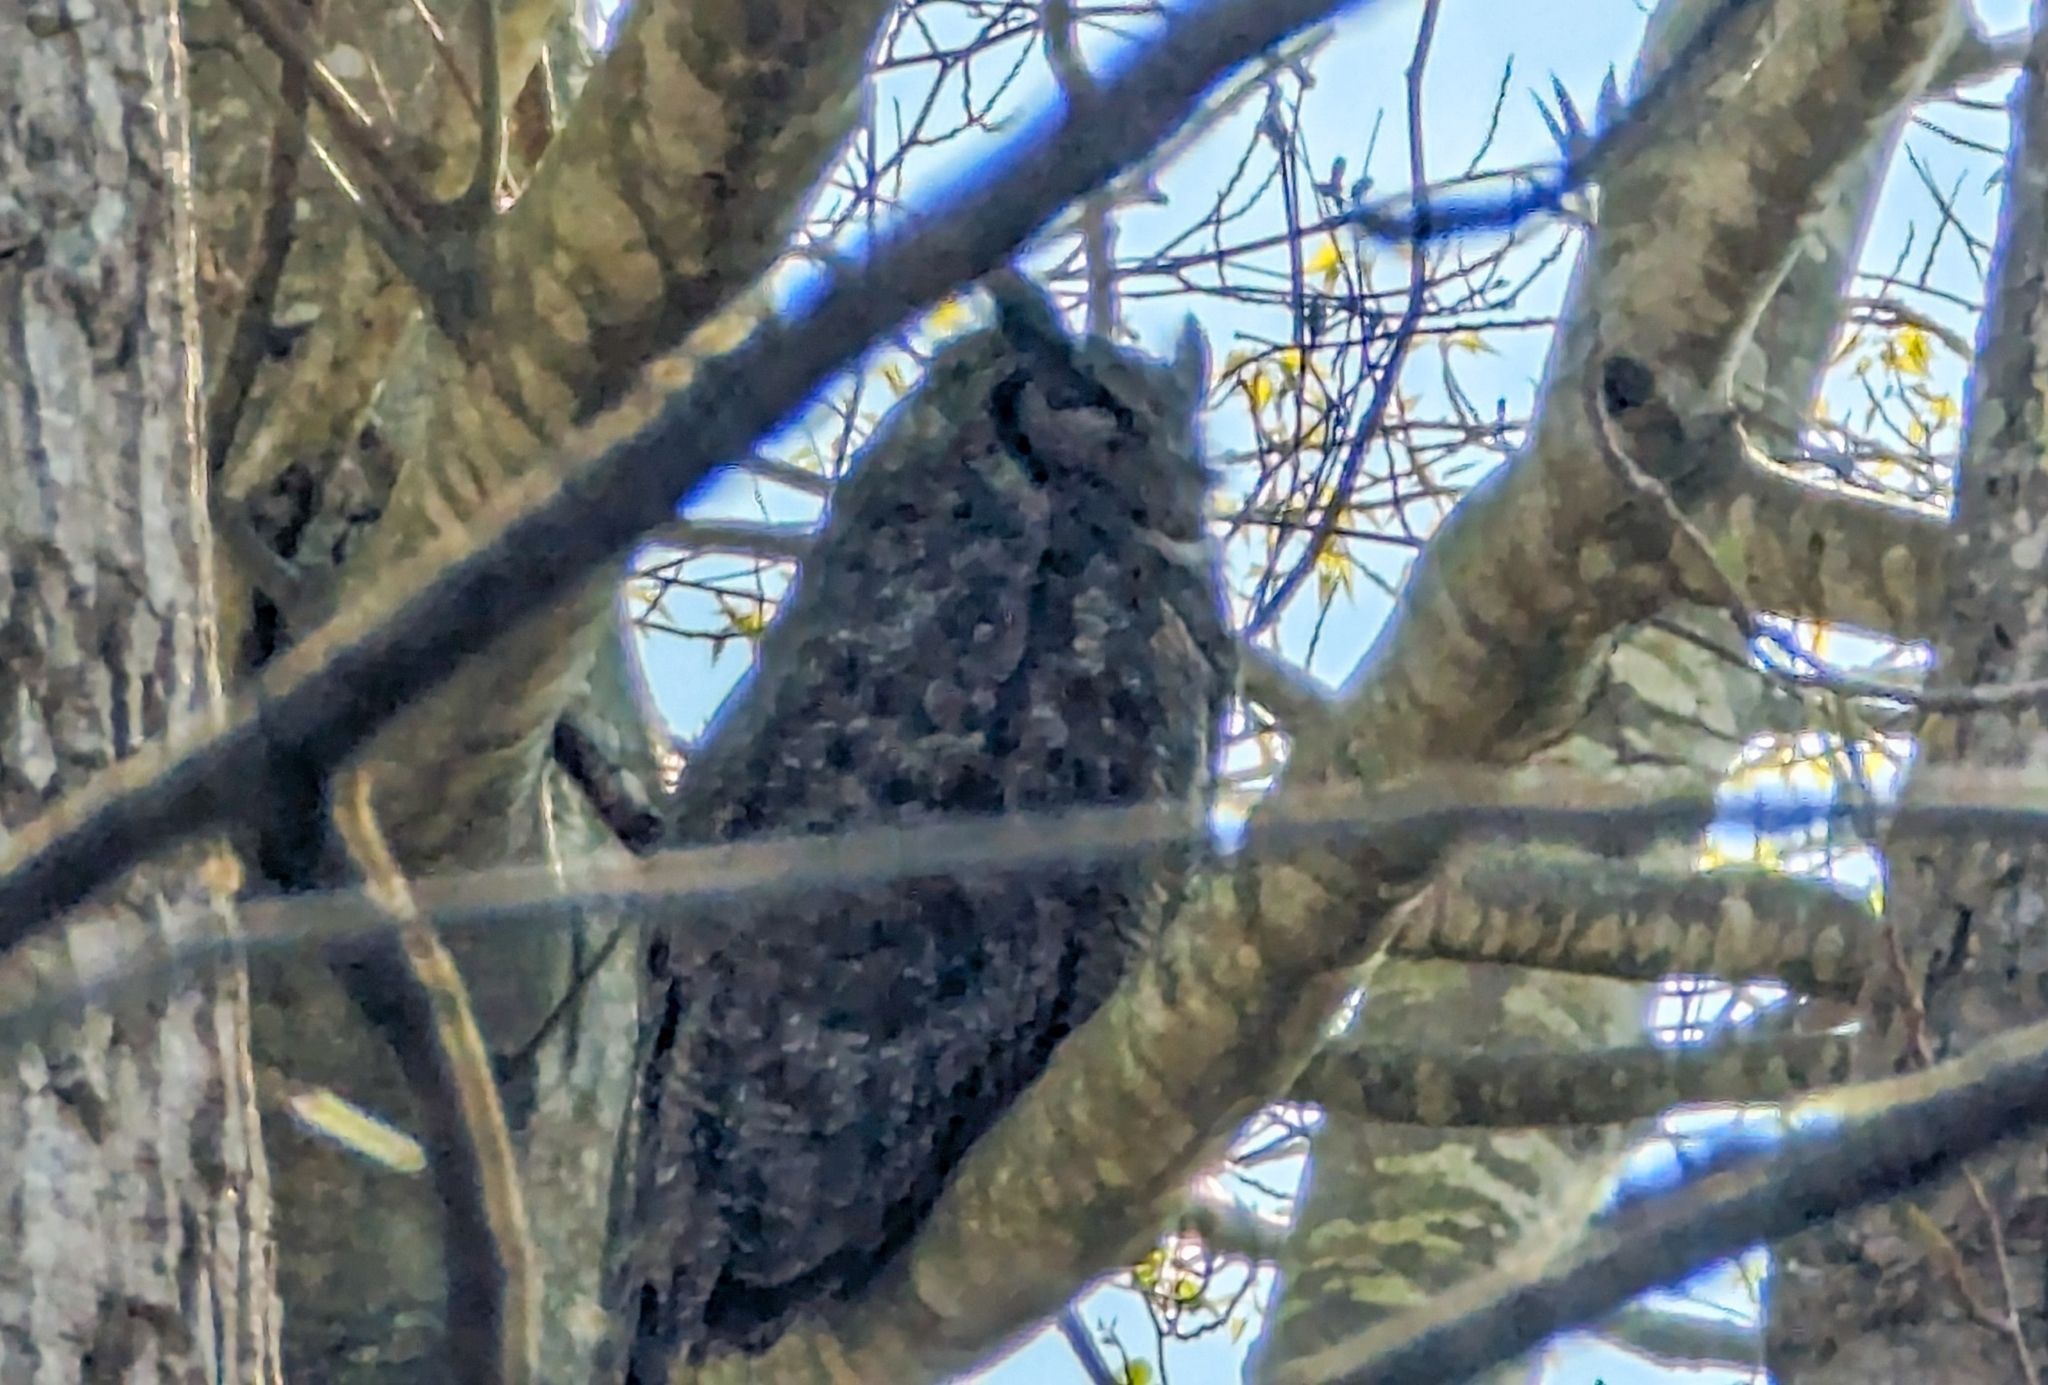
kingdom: Animalia
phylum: Chordata
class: Aves
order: Strigiformes
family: Strigidae
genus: Bubo
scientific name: Bubo virginianus
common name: Great horned owl
